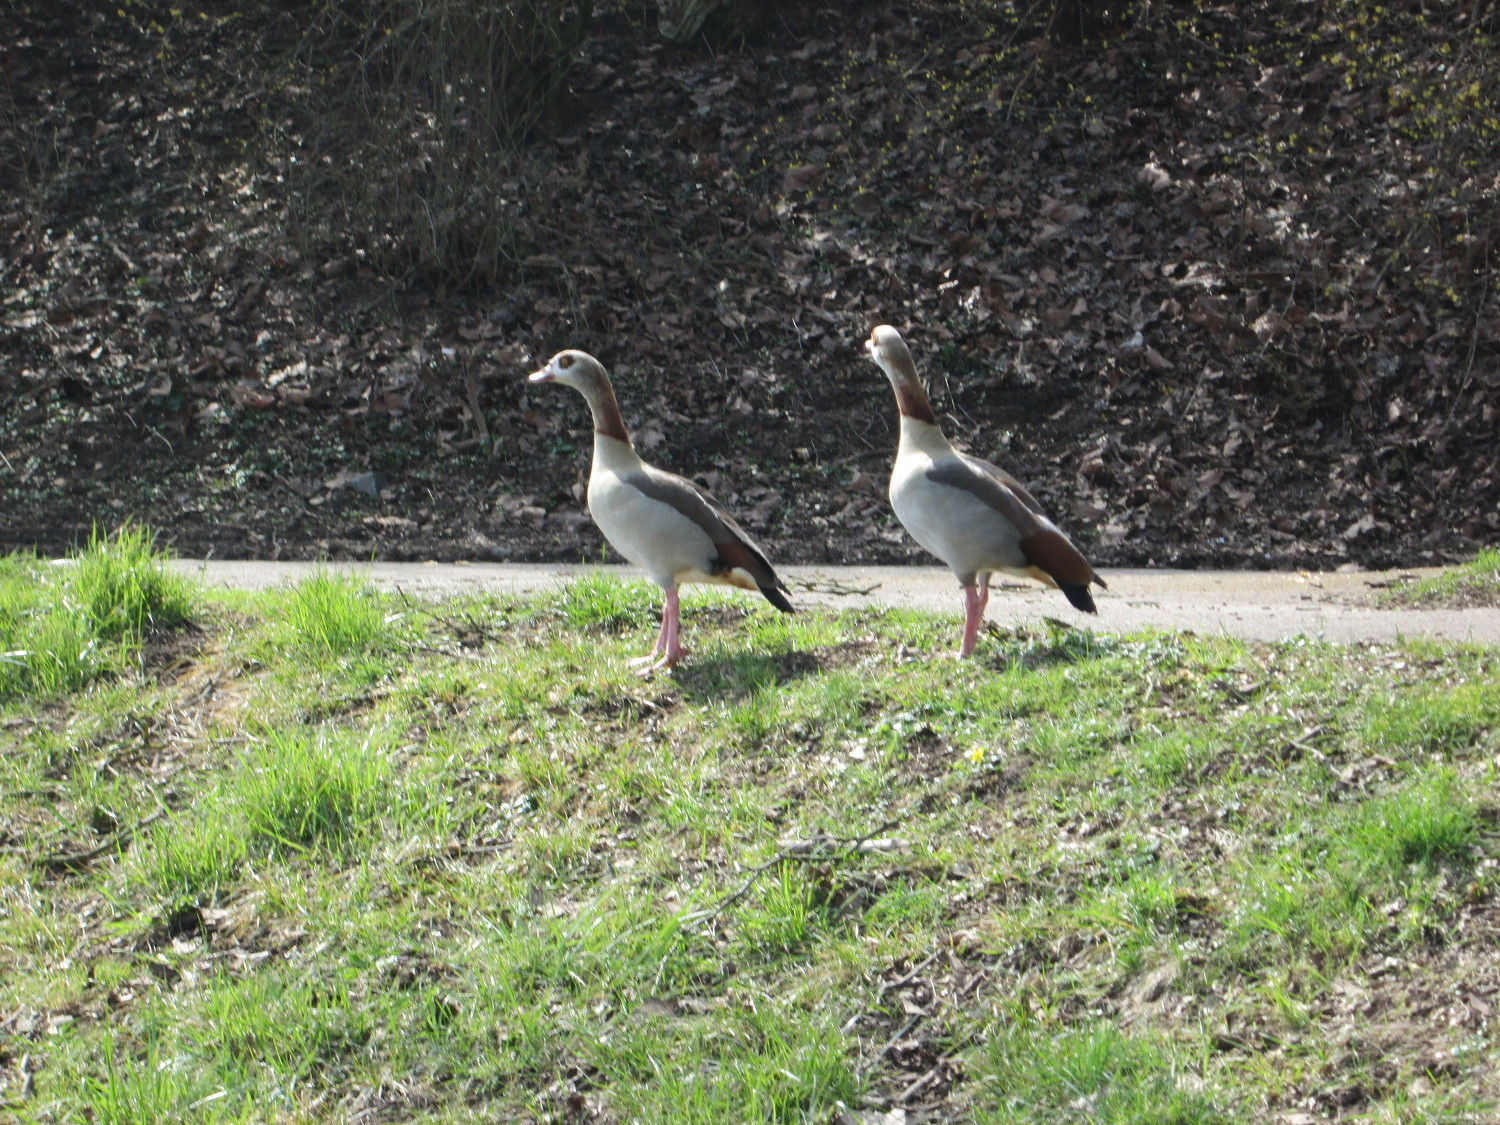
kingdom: Animalia
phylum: Chordata
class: Aves
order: Anseriformes
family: Anatidae
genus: Alopochen
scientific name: Alopochen aegyptiaca
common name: Egyptian goose
